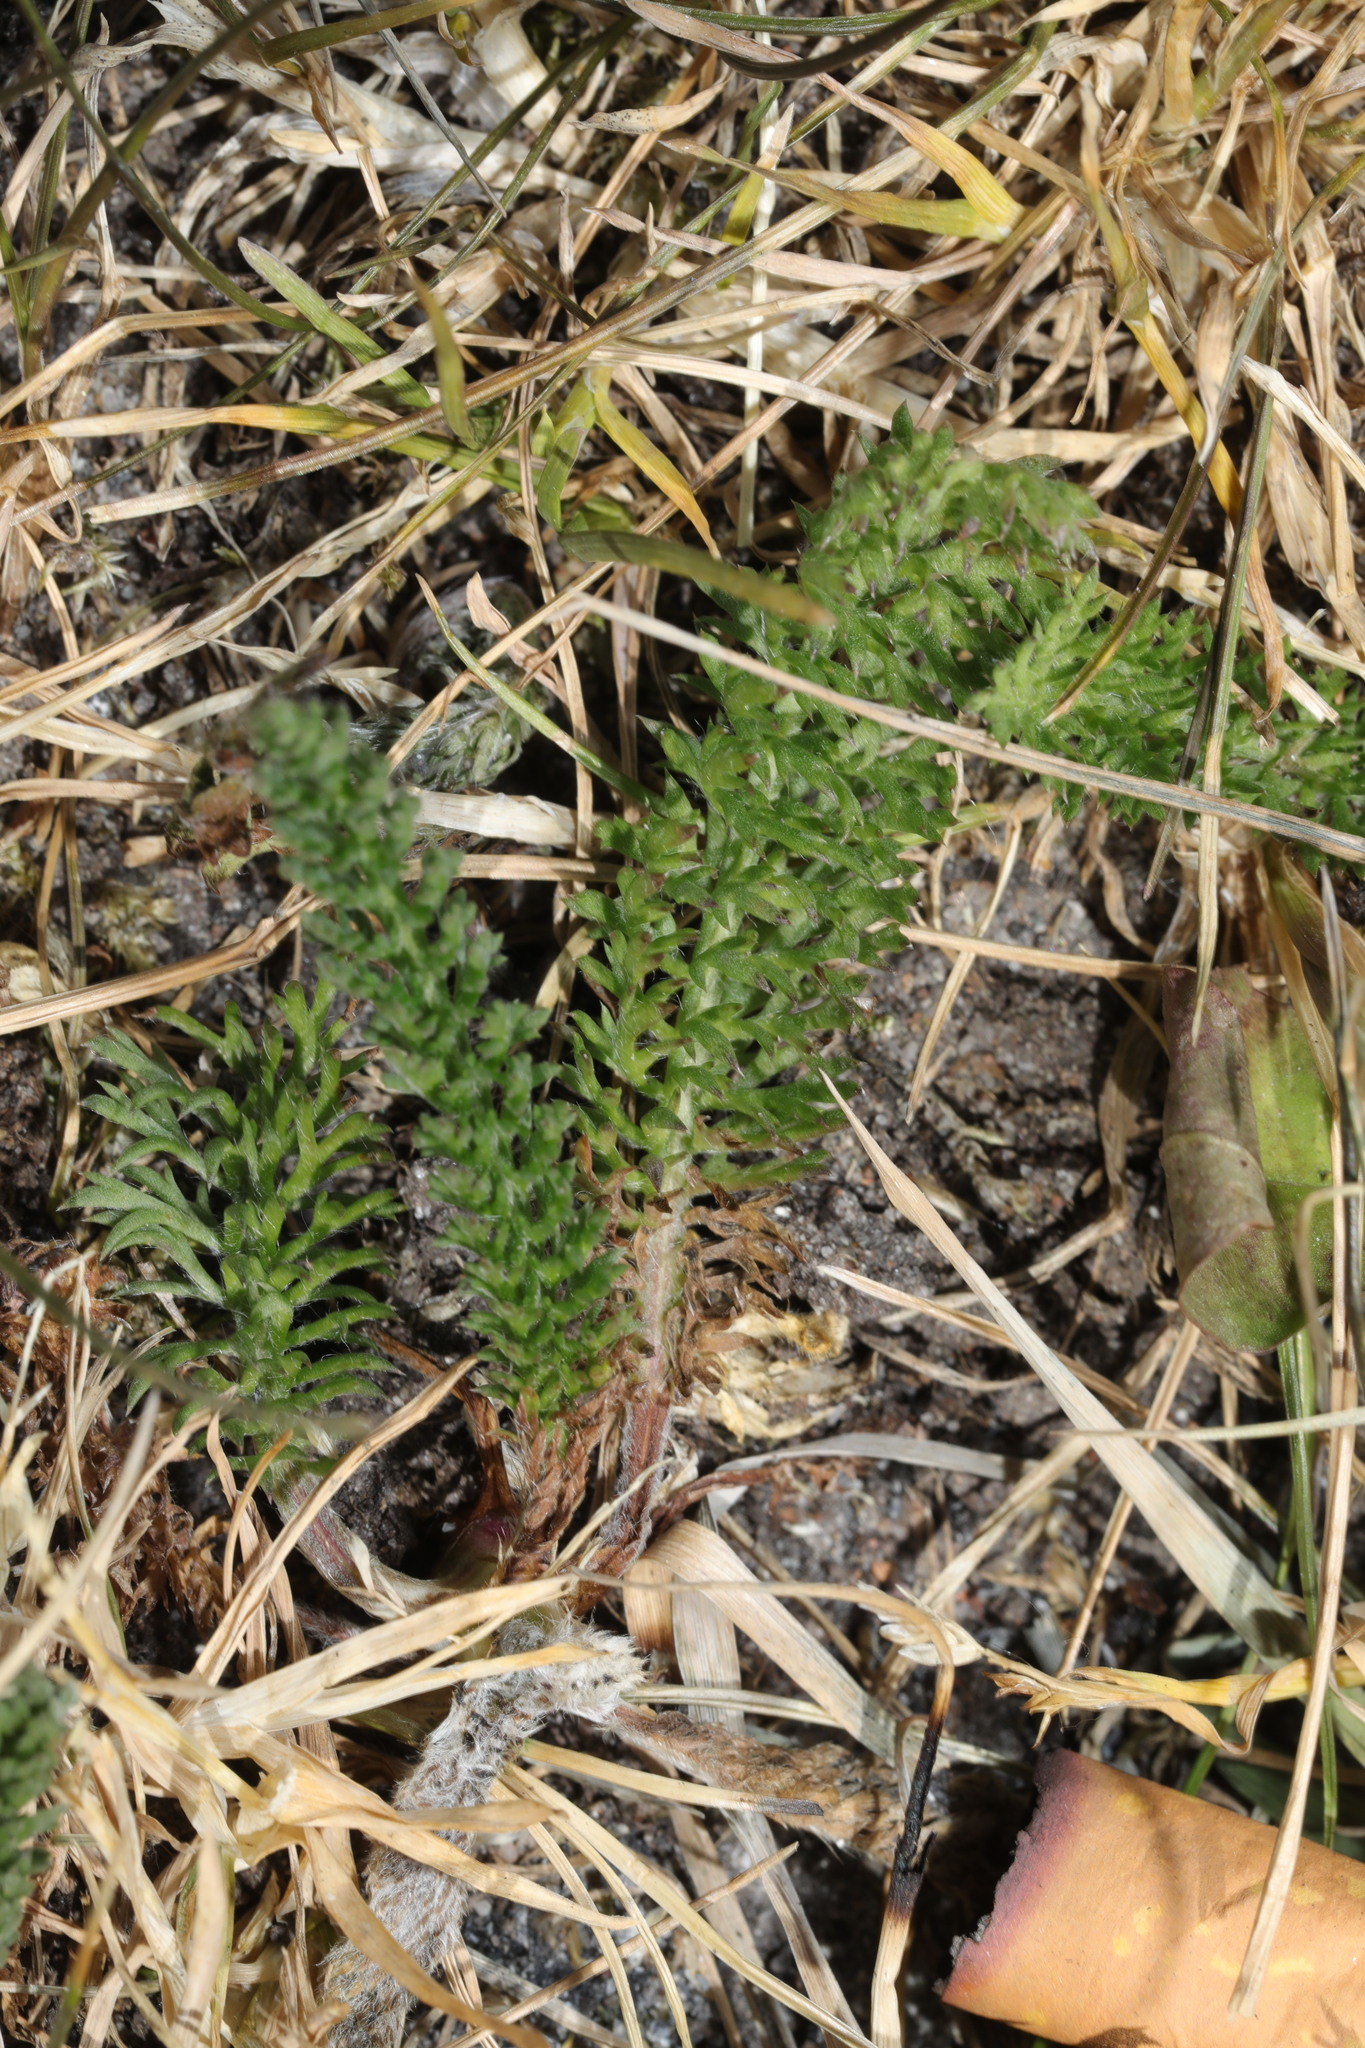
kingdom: Plantae
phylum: Tracheophyta
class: Magnoliopsida
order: Asterales
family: Asteraceae
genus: Achillea
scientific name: Achillea millefolium
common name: Yarrow
